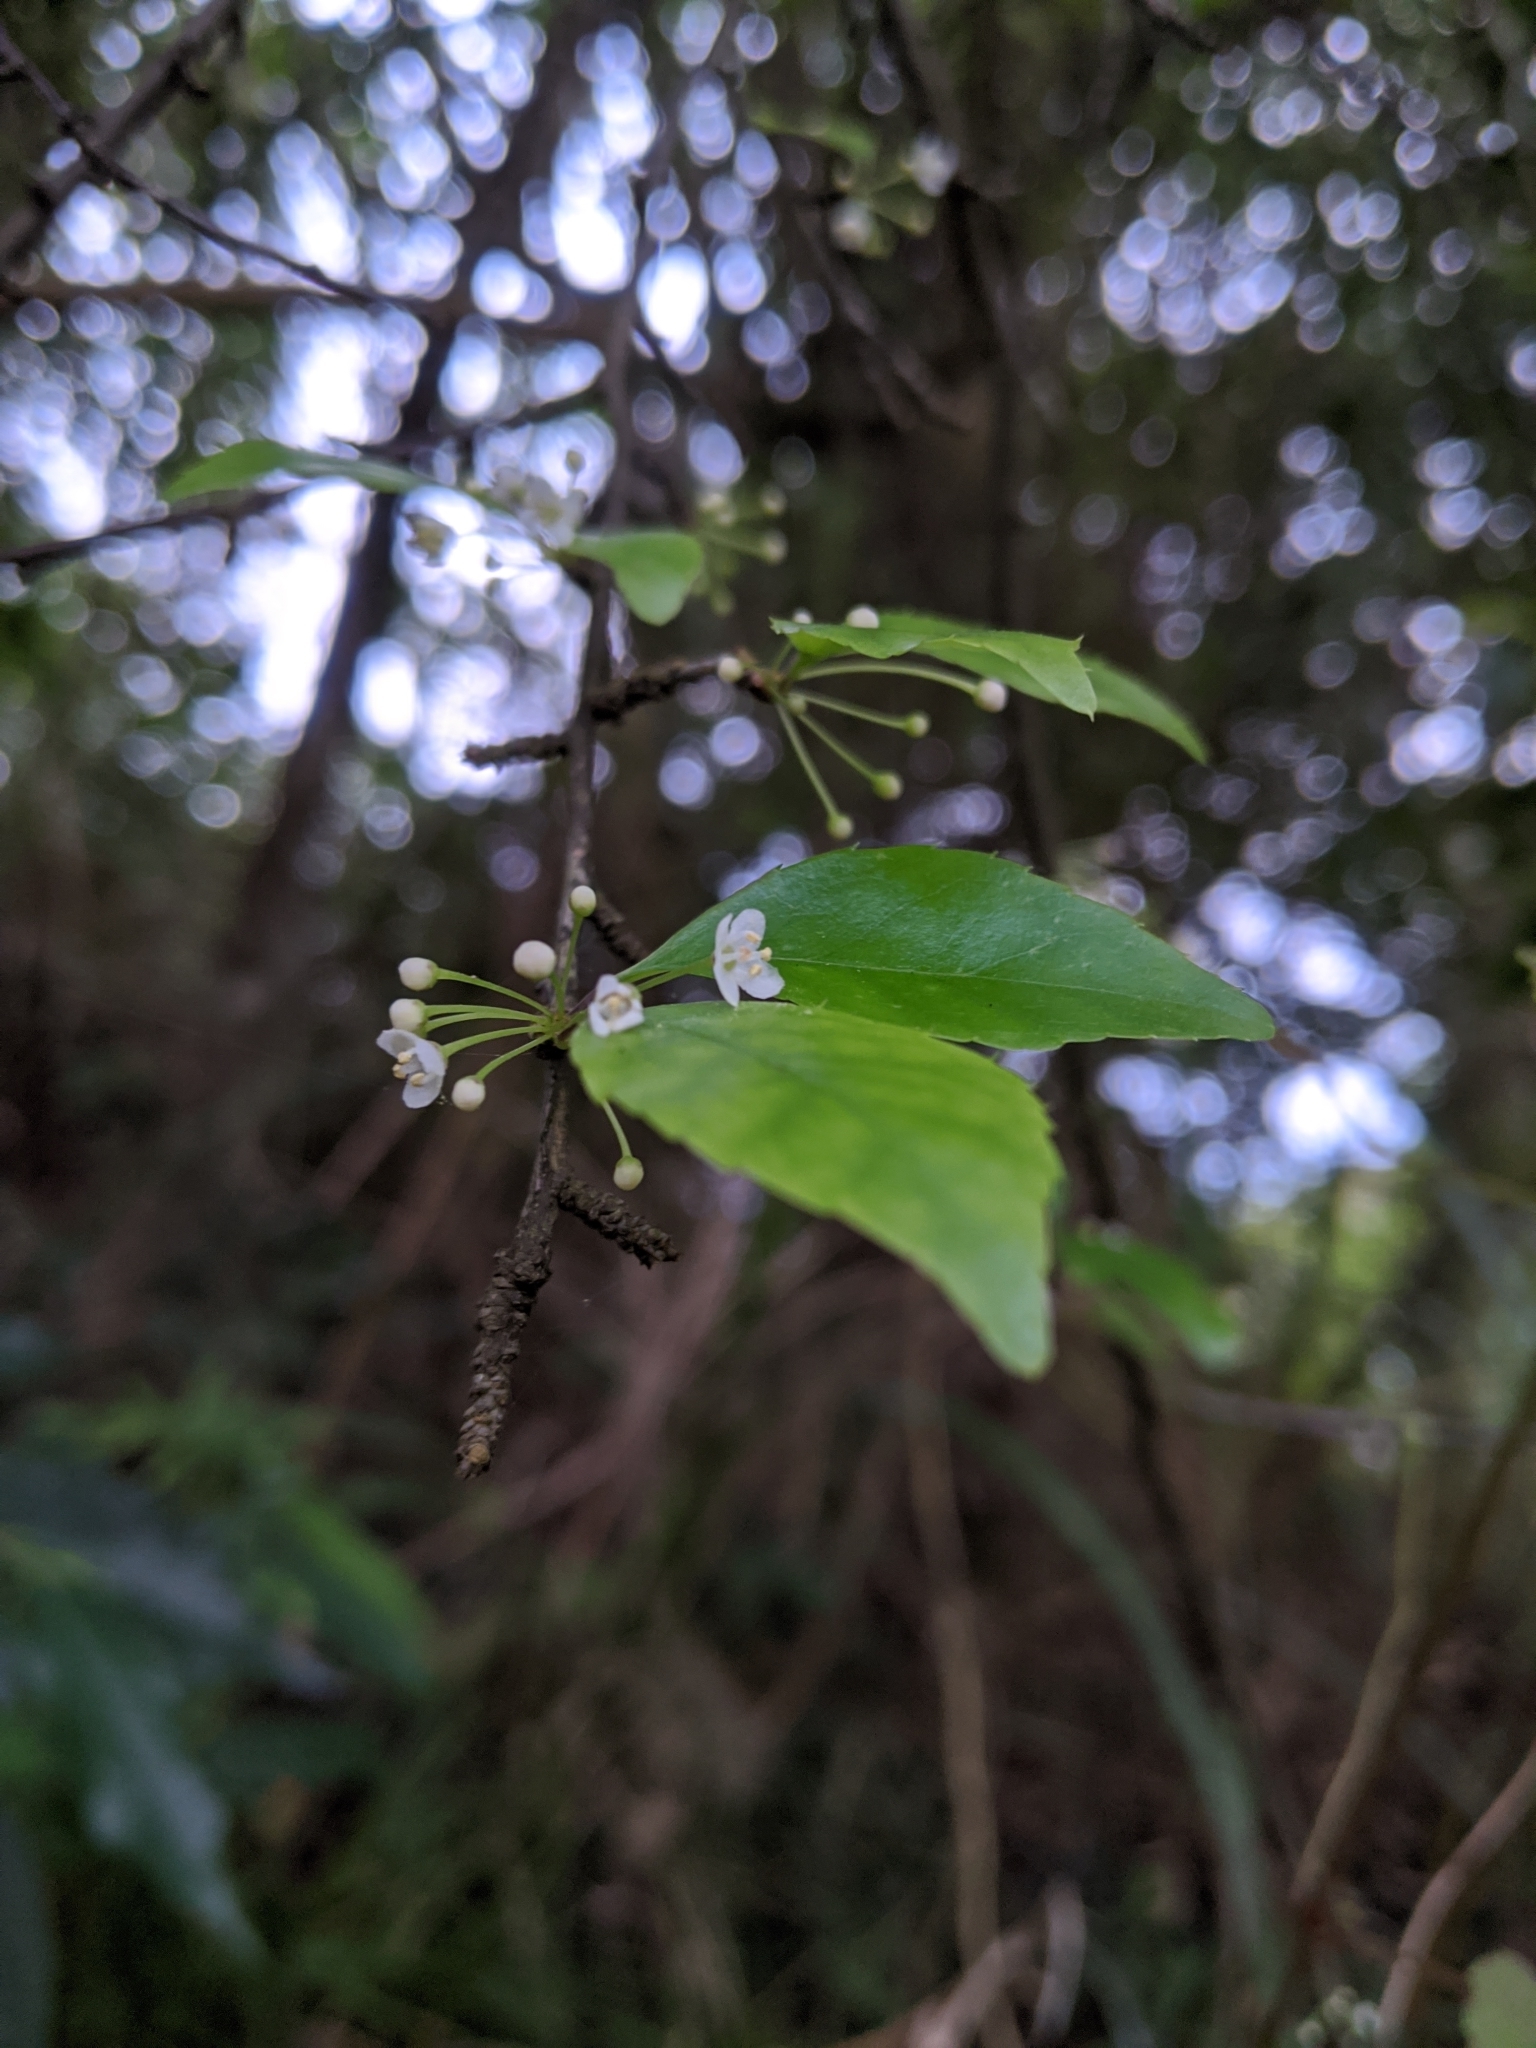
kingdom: Plantae
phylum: Tracheophyta
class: Magnoliopsida
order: Aquifoliales
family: Aquifoliaceae
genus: Ilex
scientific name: Ilex asprella
